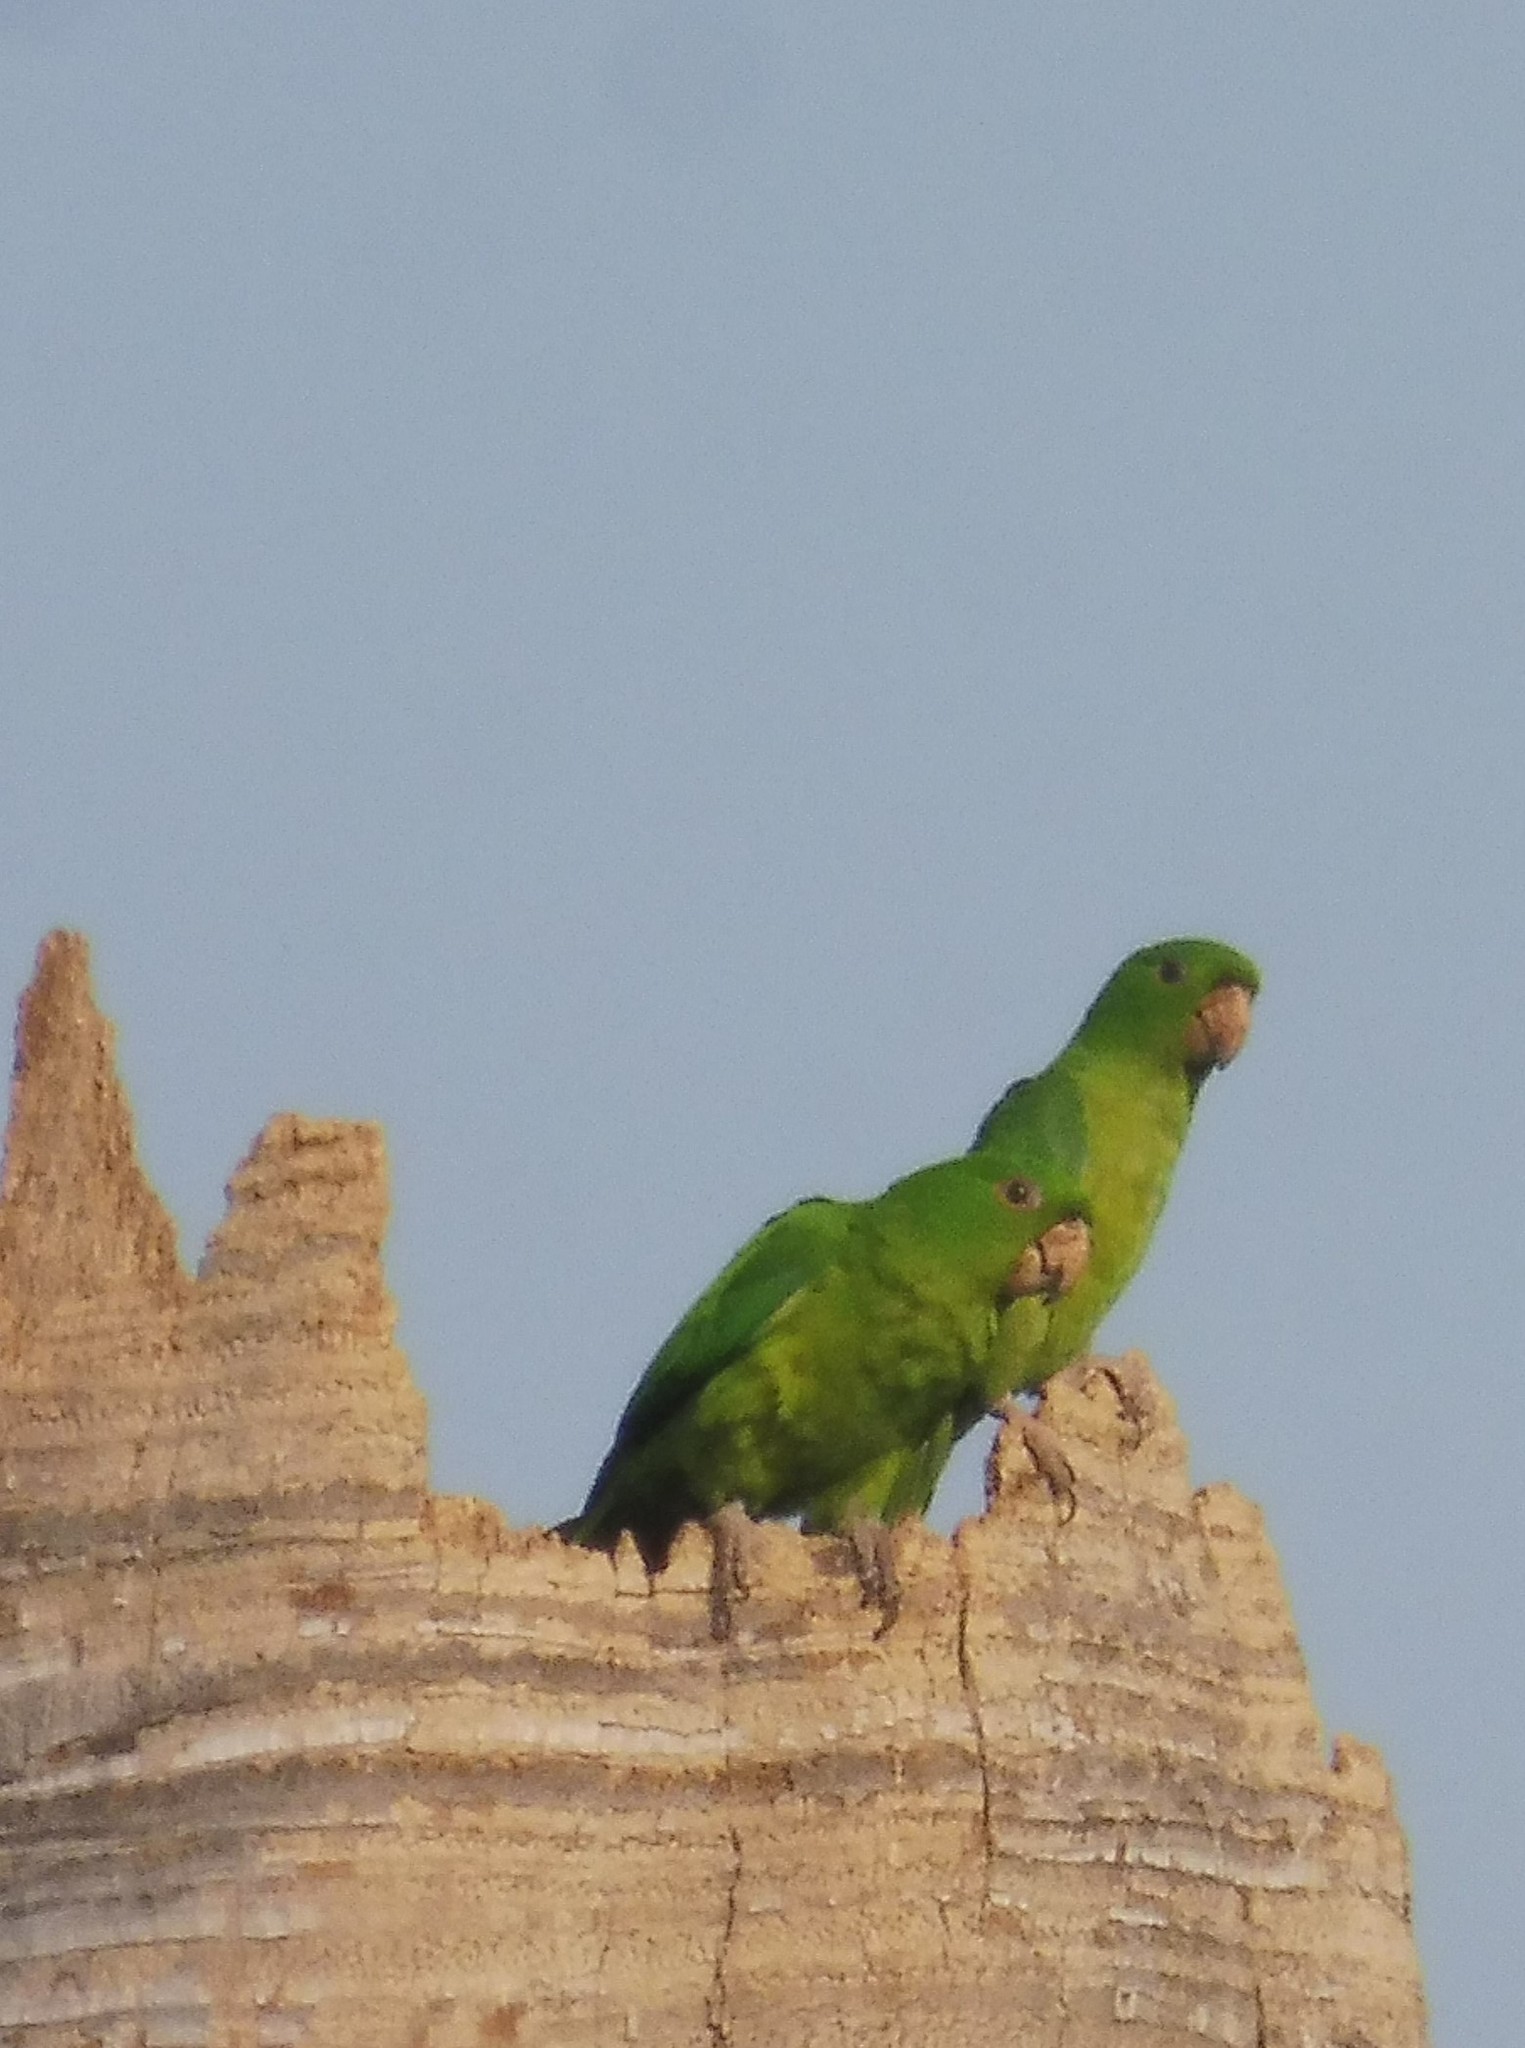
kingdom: Animalia
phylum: Chordata
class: Aves
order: Psittaciformes
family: Psittacidae
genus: Aratinga
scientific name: Aratinga holochlora
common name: Green parakeet
